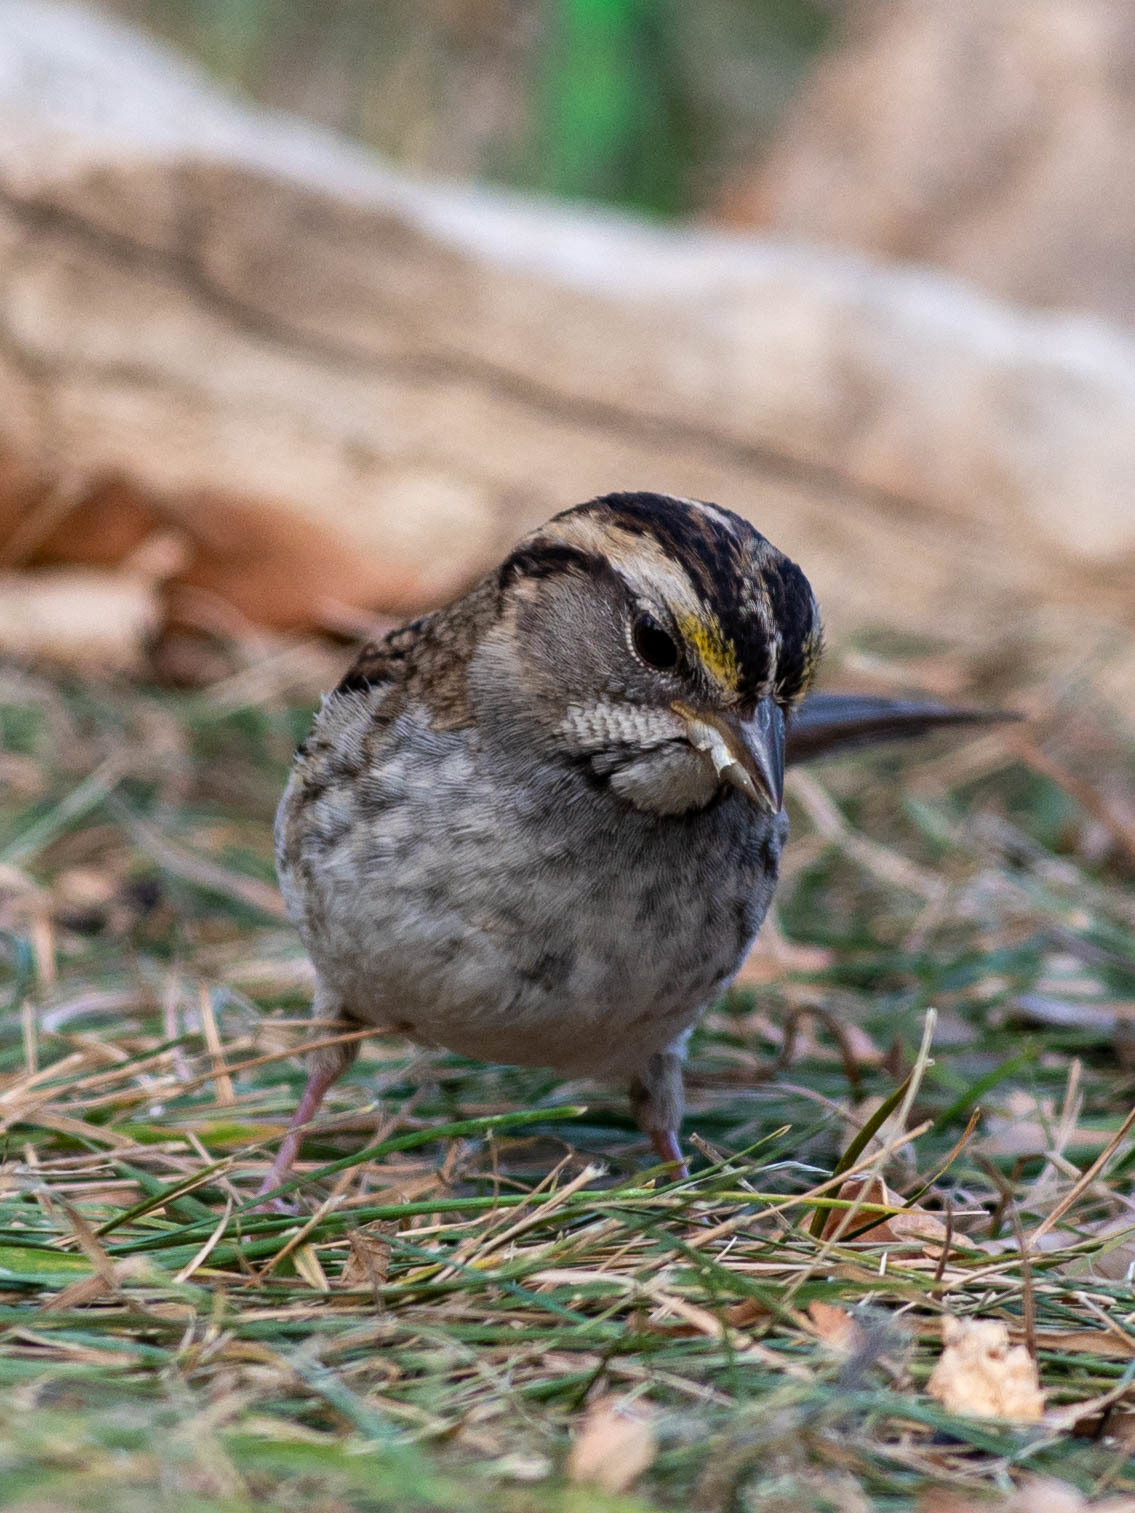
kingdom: Animalia
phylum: Chordata
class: Aves
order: Passeriformes
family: Passerellidae
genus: Zonotrichia
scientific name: Zonotrichia albicollis
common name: White-throated sparrow
